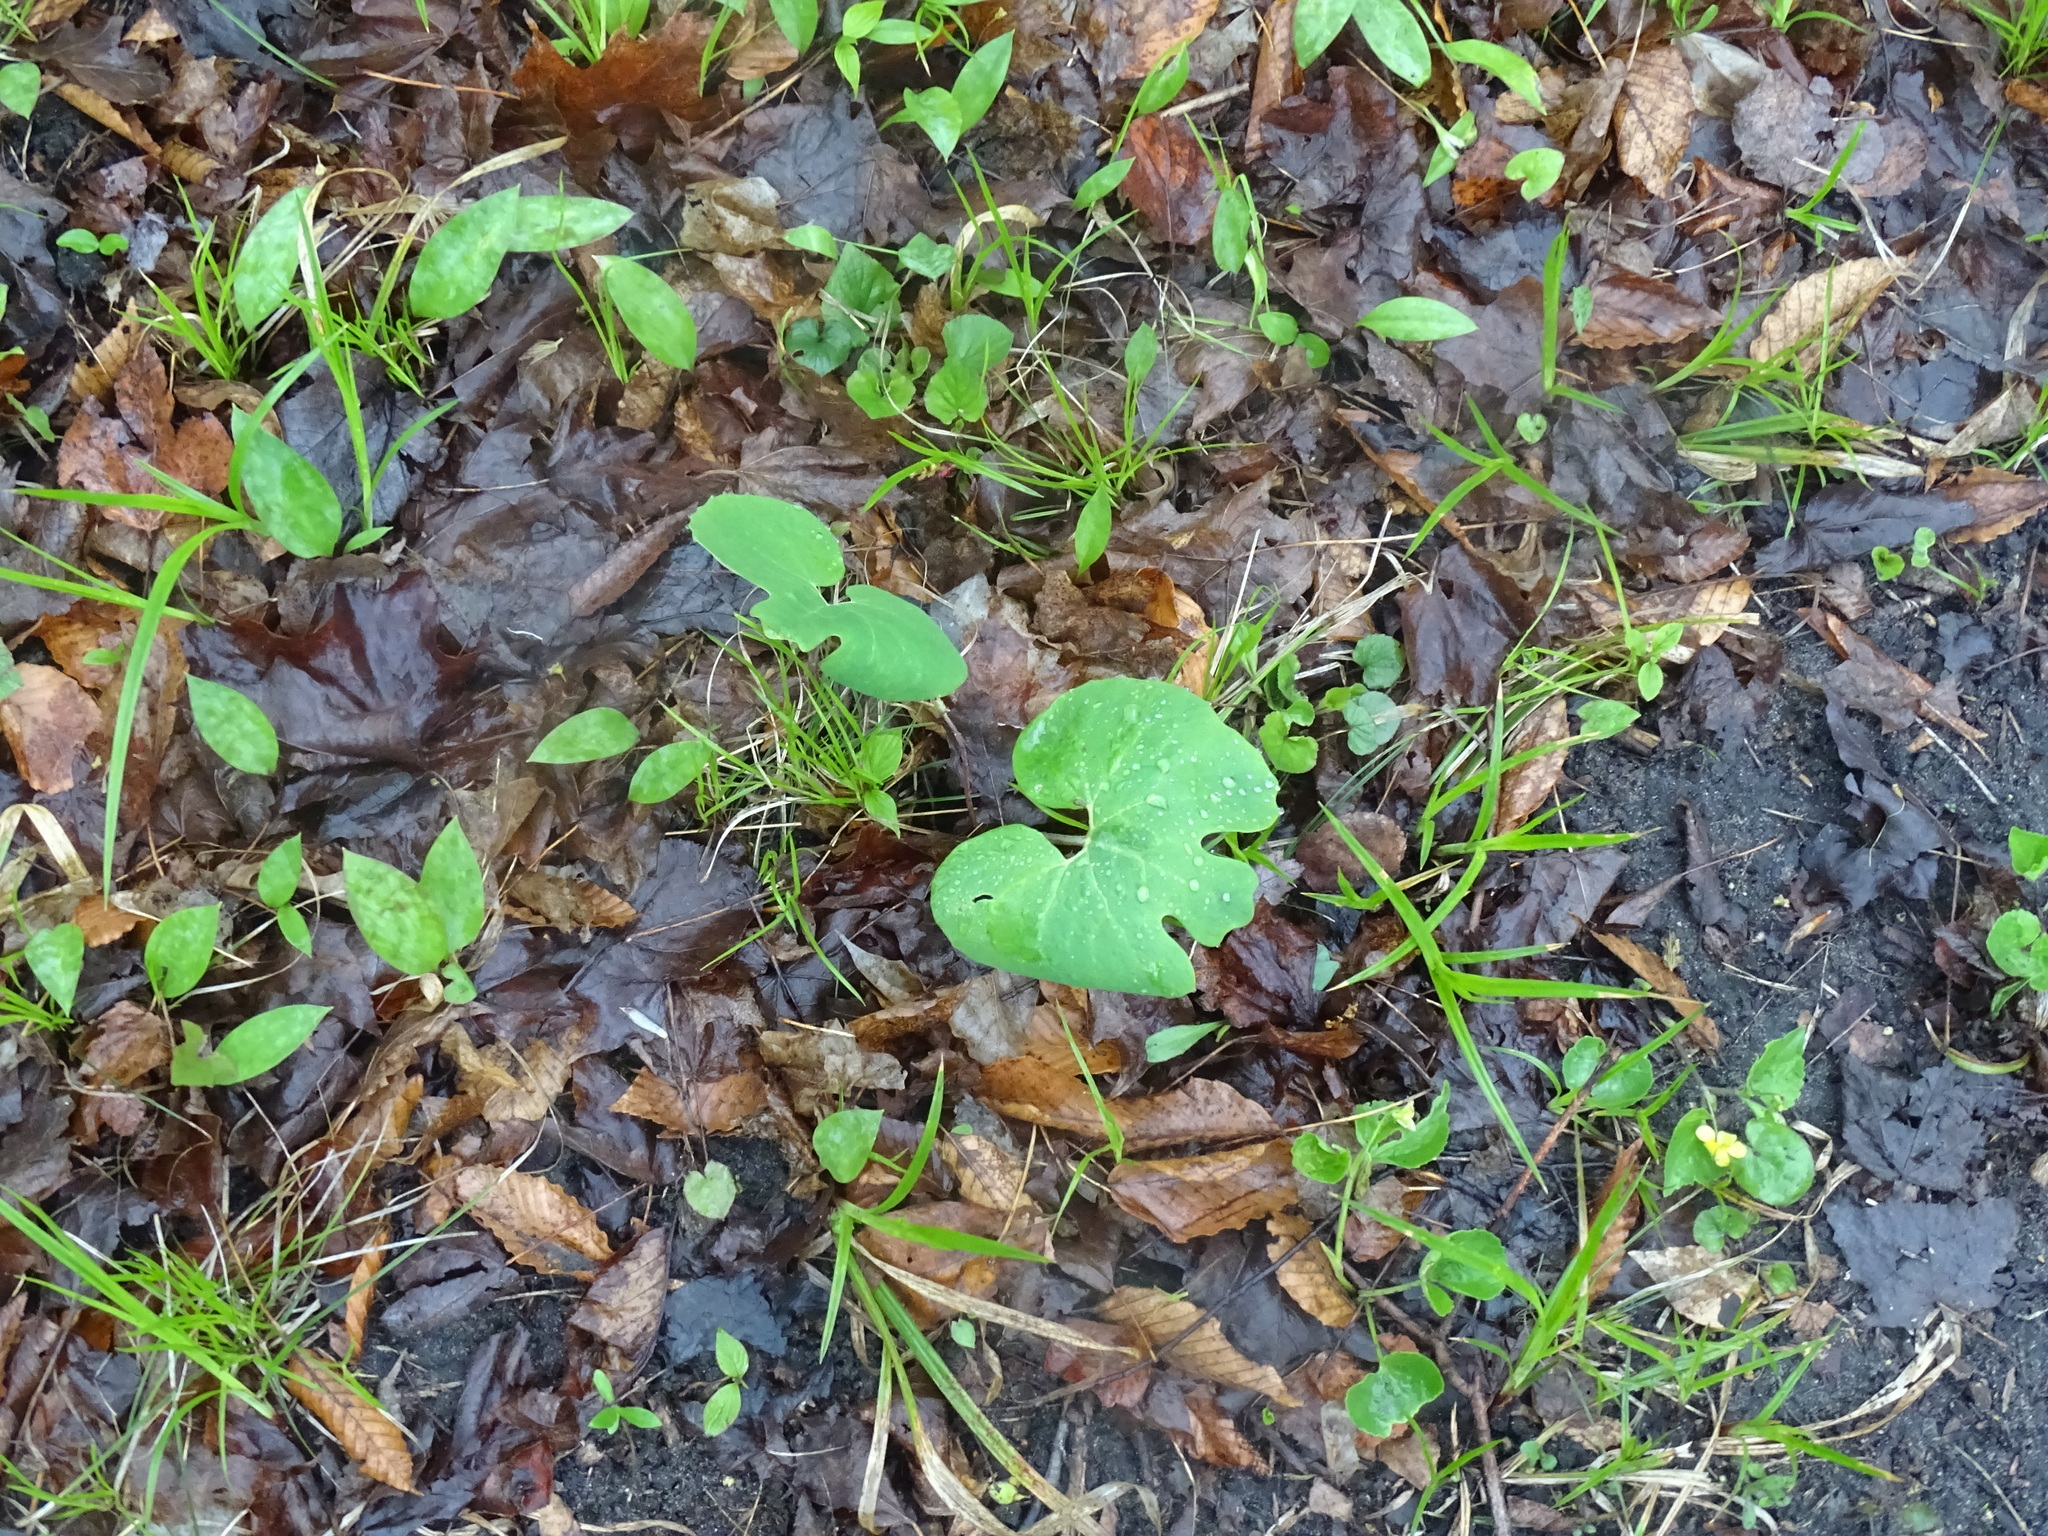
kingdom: Plantae
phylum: Tracheophyta
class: Magnoliopsida
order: Ranunculales
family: Papaveraceae
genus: Sanguinaria
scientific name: Sanguinaria canadensis
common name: Bloodroot
